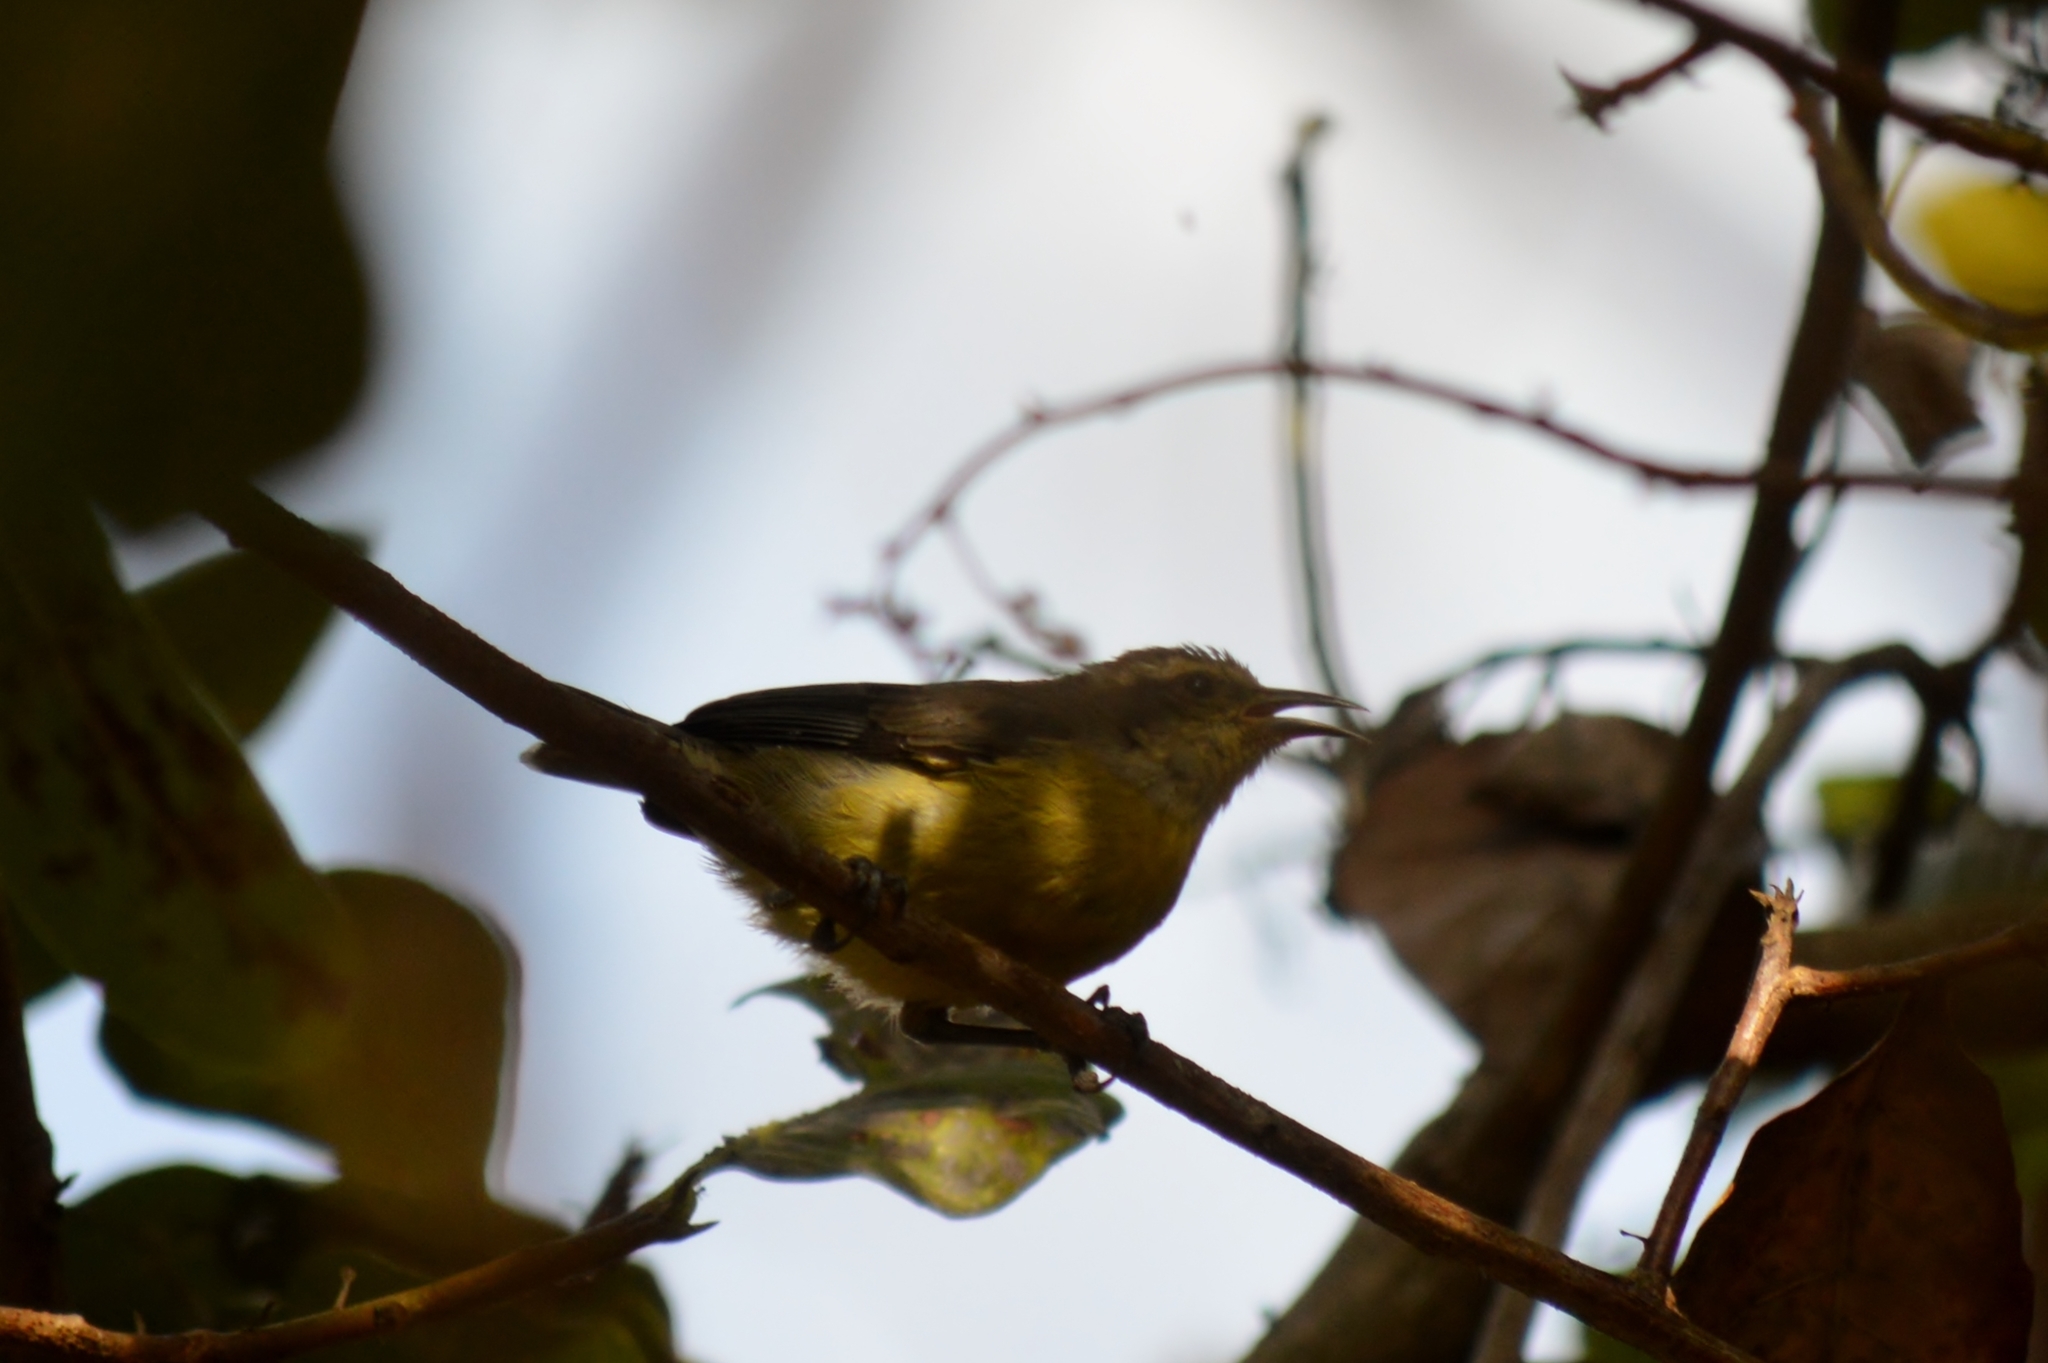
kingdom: Animalia
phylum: Chordata
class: Aves
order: Passeriformes
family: Thraupidae
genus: Coereba
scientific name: Coereba flaveola
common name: Bananaquit
